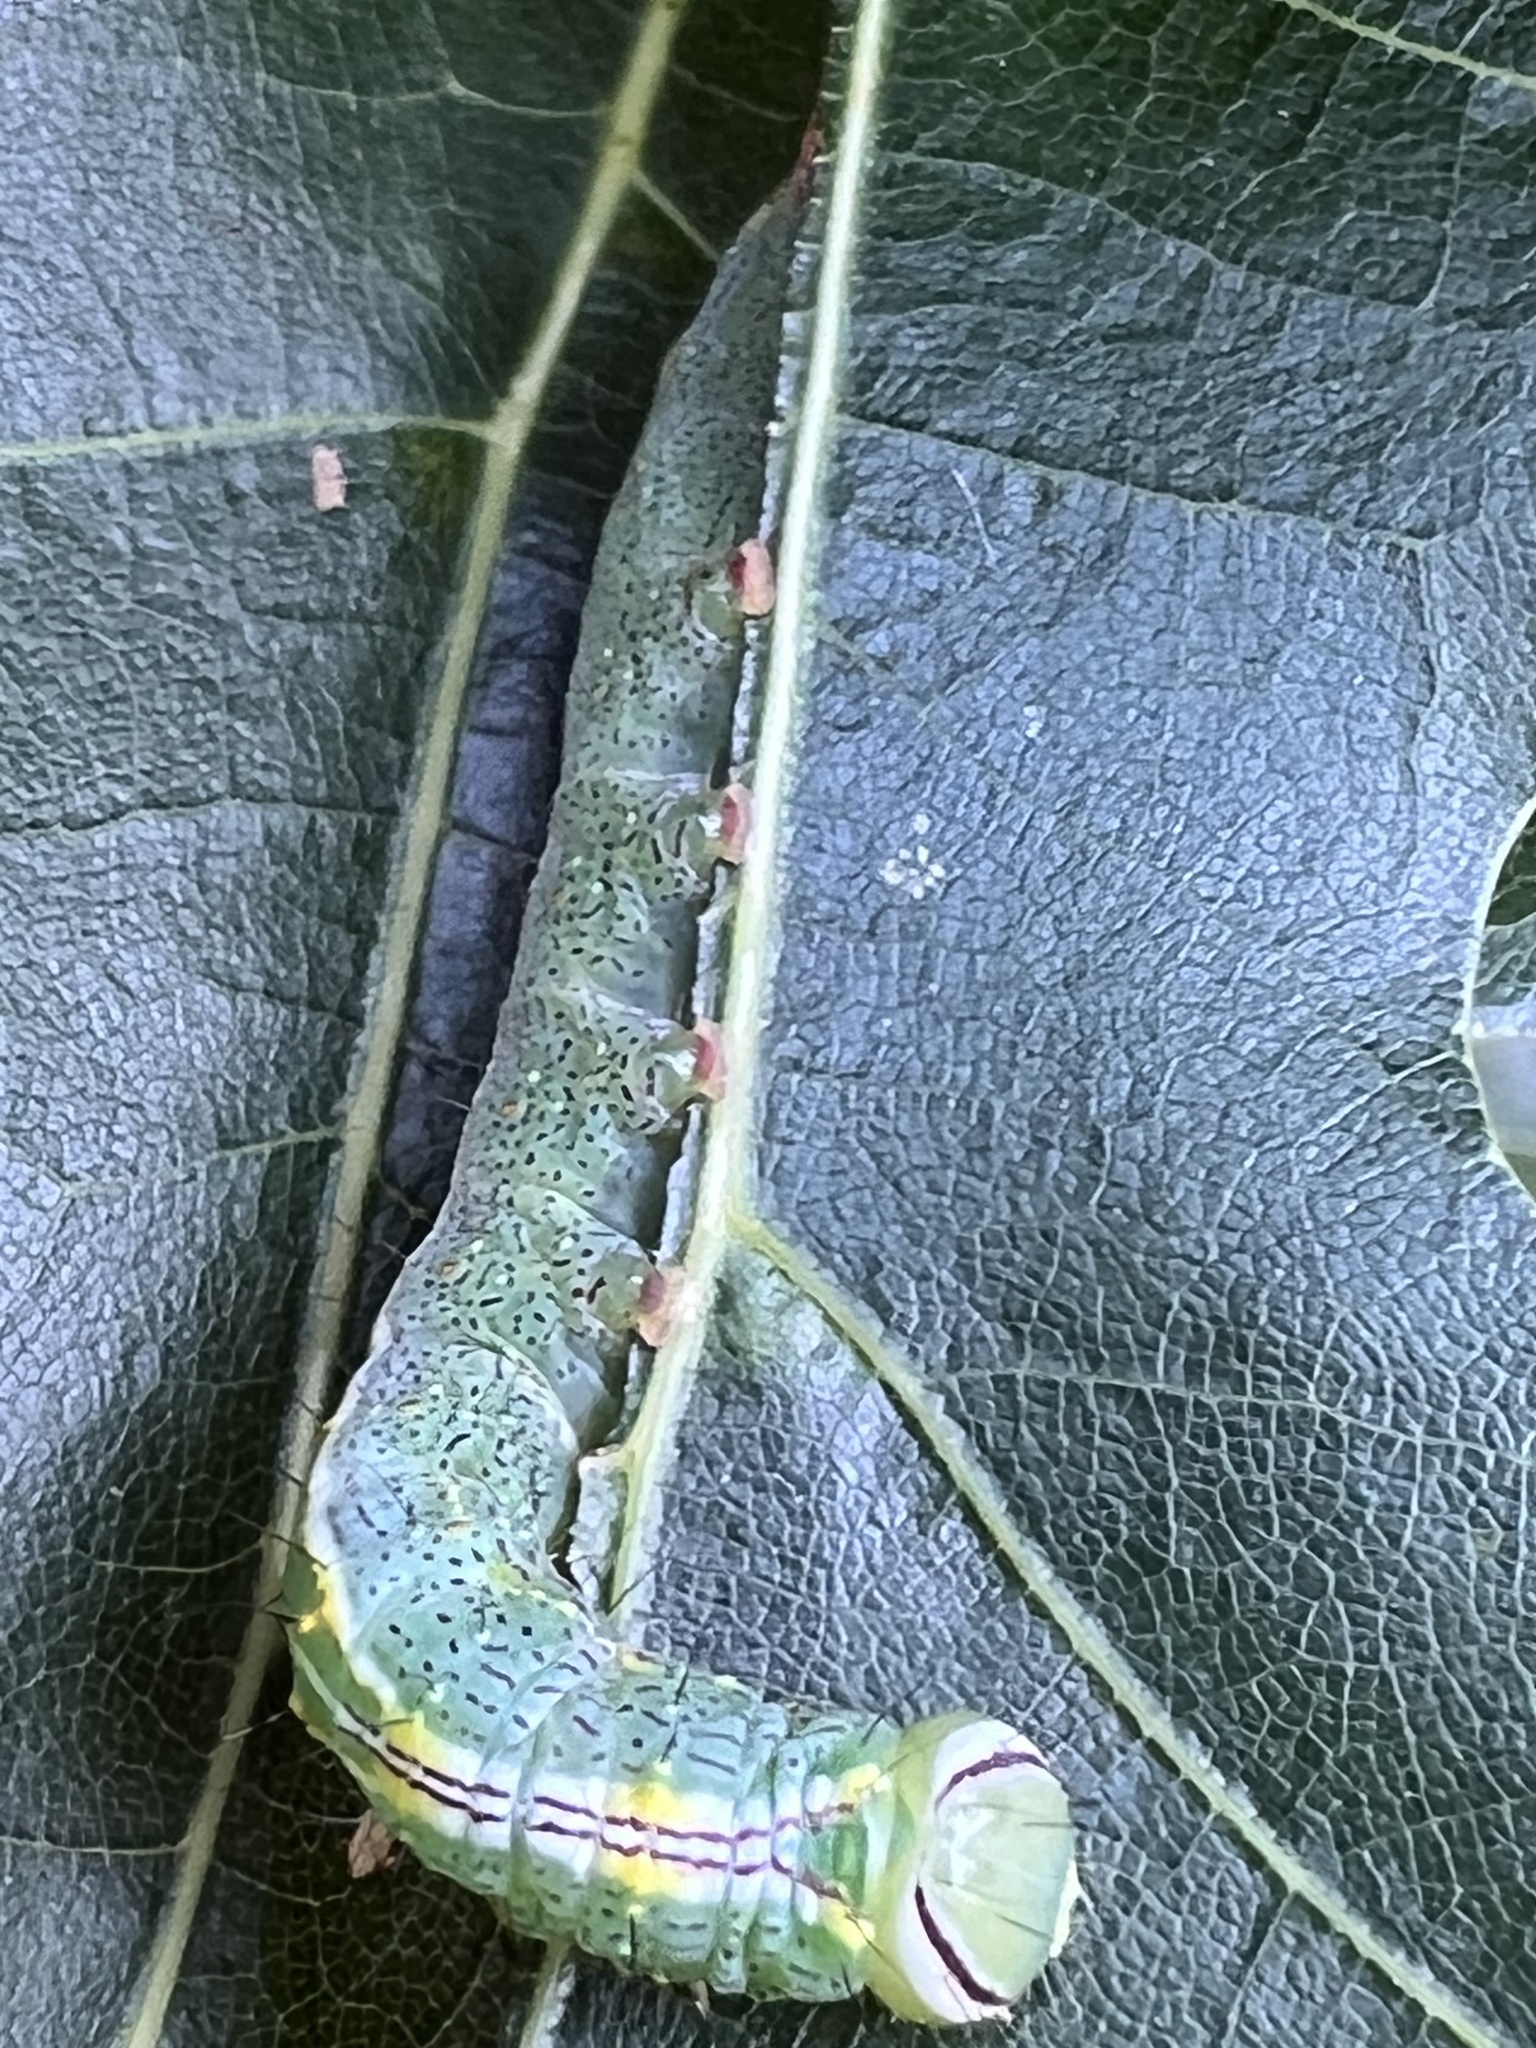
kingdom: Animalia
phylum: Arthropoda
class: Insecta
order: Lepidoptera
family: Notodontidae
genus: Lochmaeus
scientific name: Lochmaeus manteo
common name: Variable oakleaf caterpillar moth
